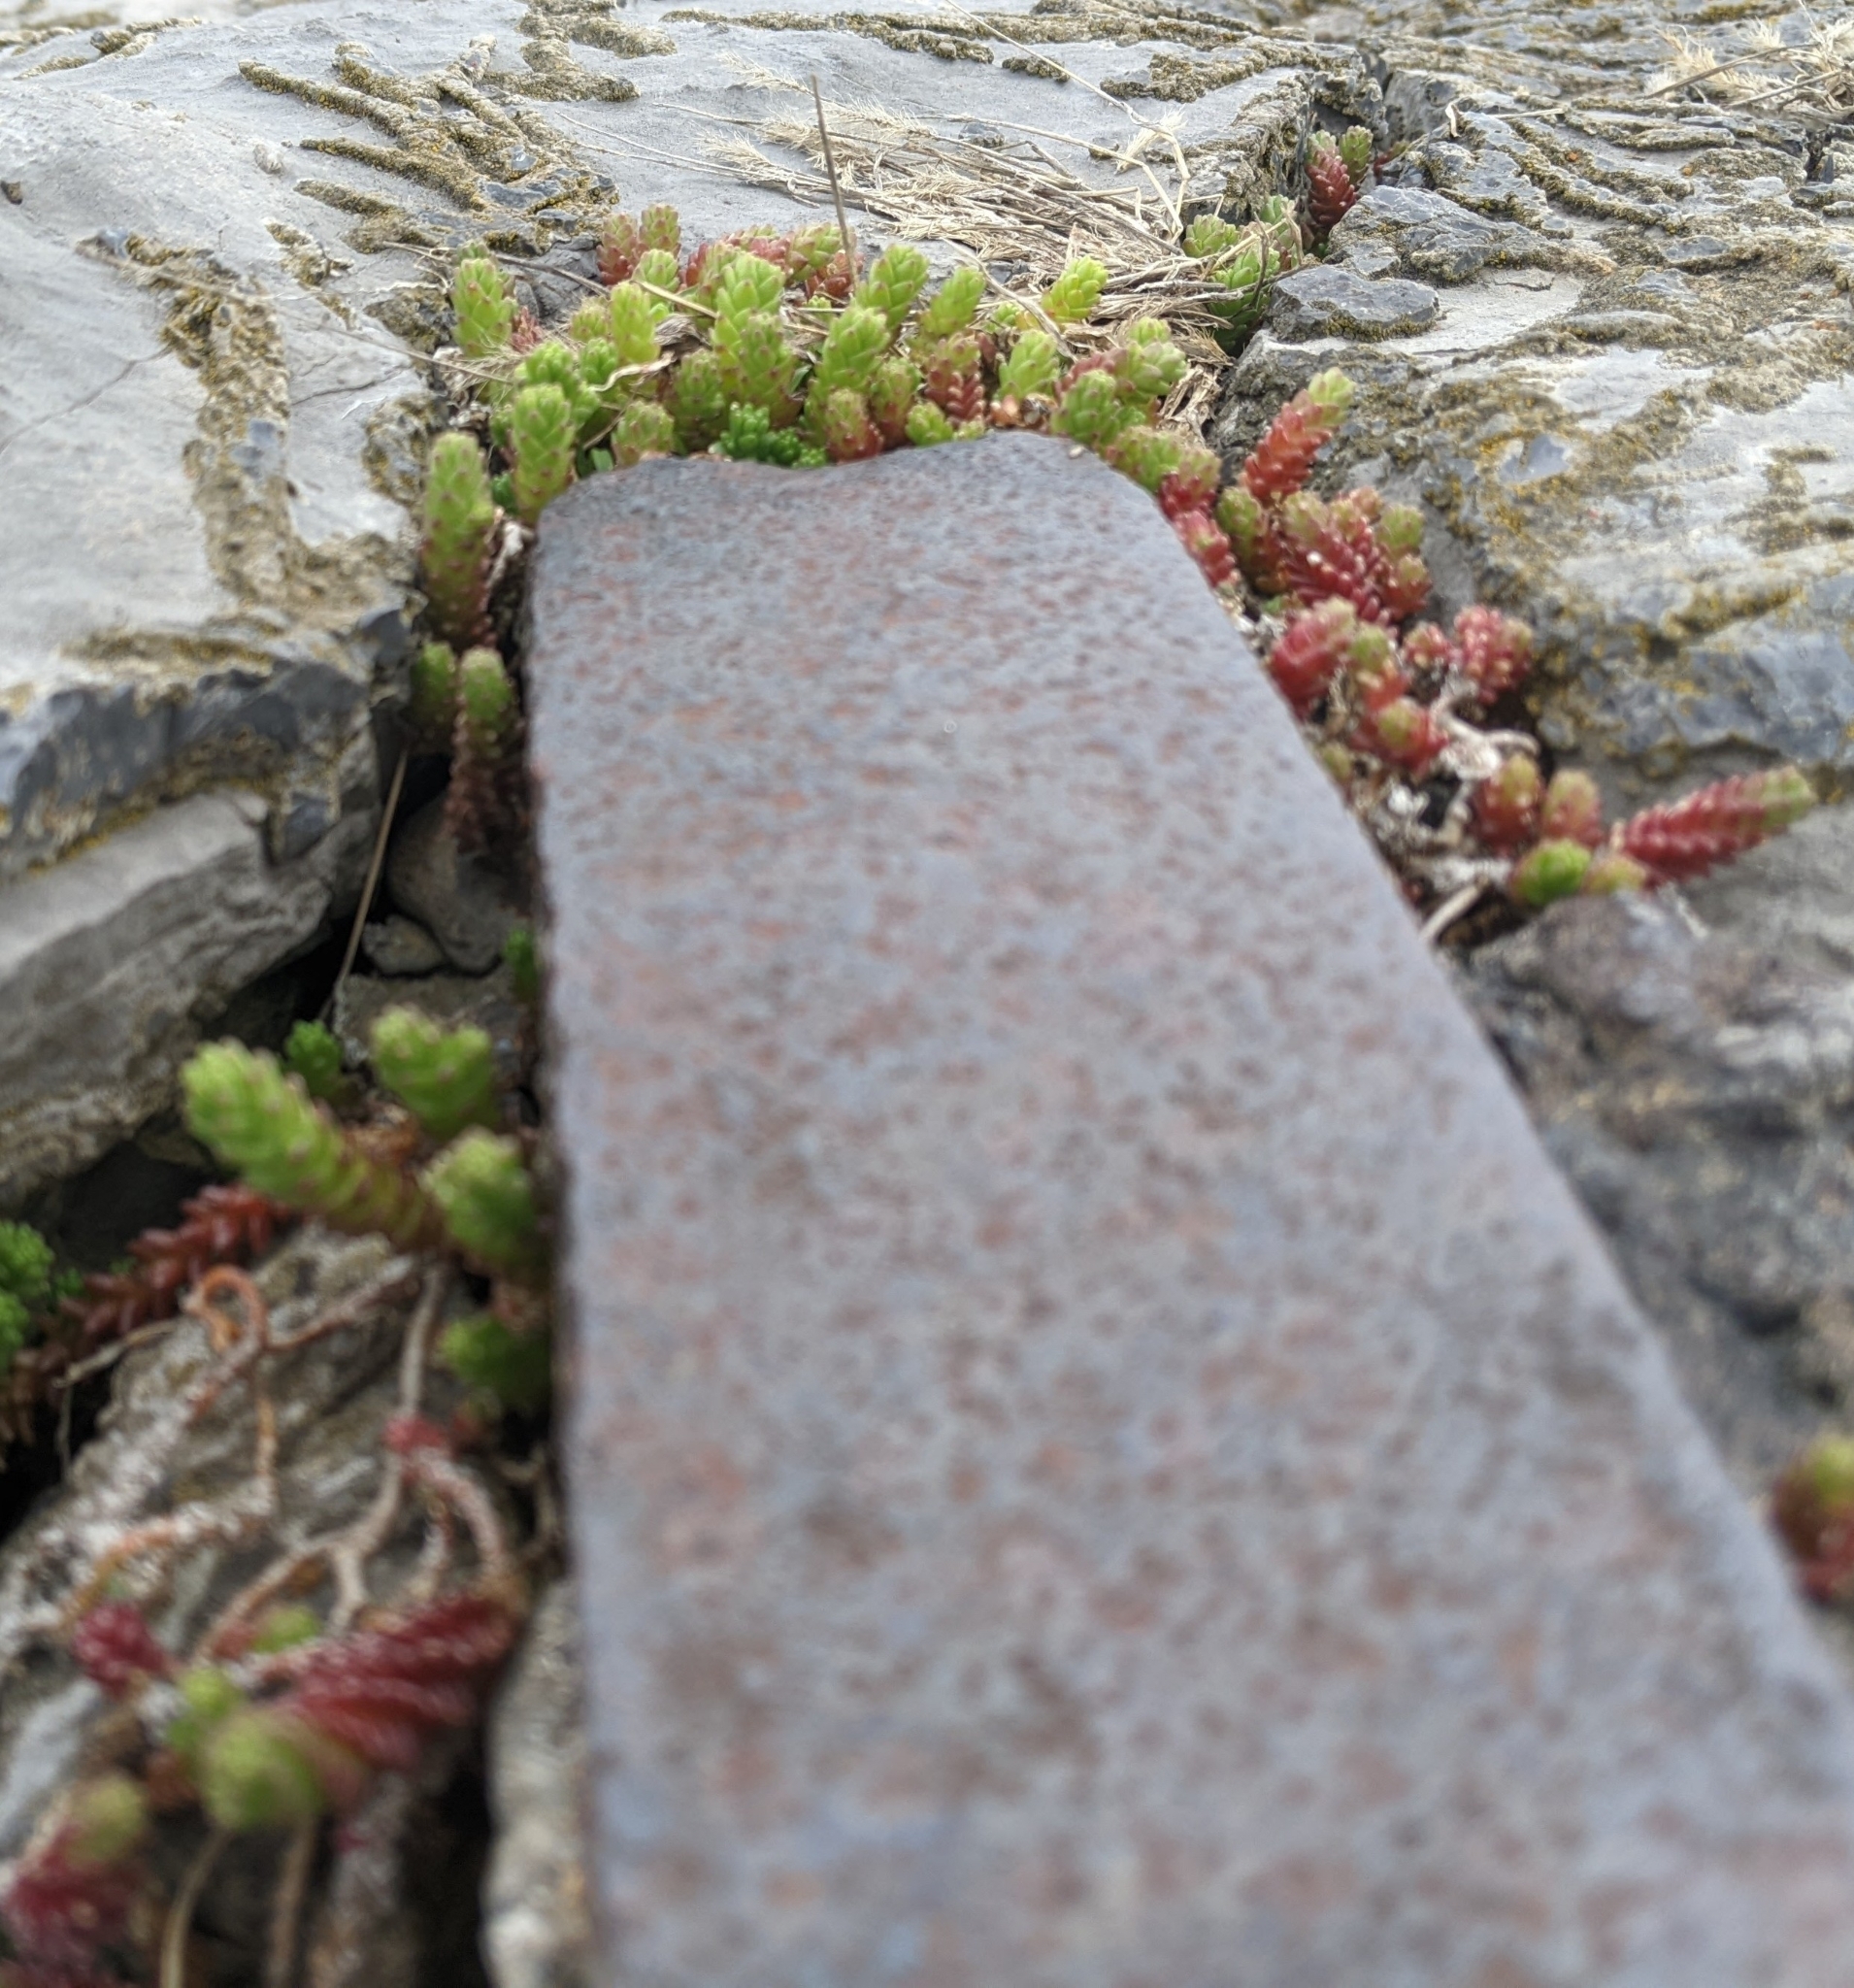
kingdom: Plantae
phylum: Tracheophyta
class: Magnoliopsida
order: Saxifragales
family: Crassulaceae
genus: Sedum
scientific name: Sedum acre
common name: Biting stonecrop
